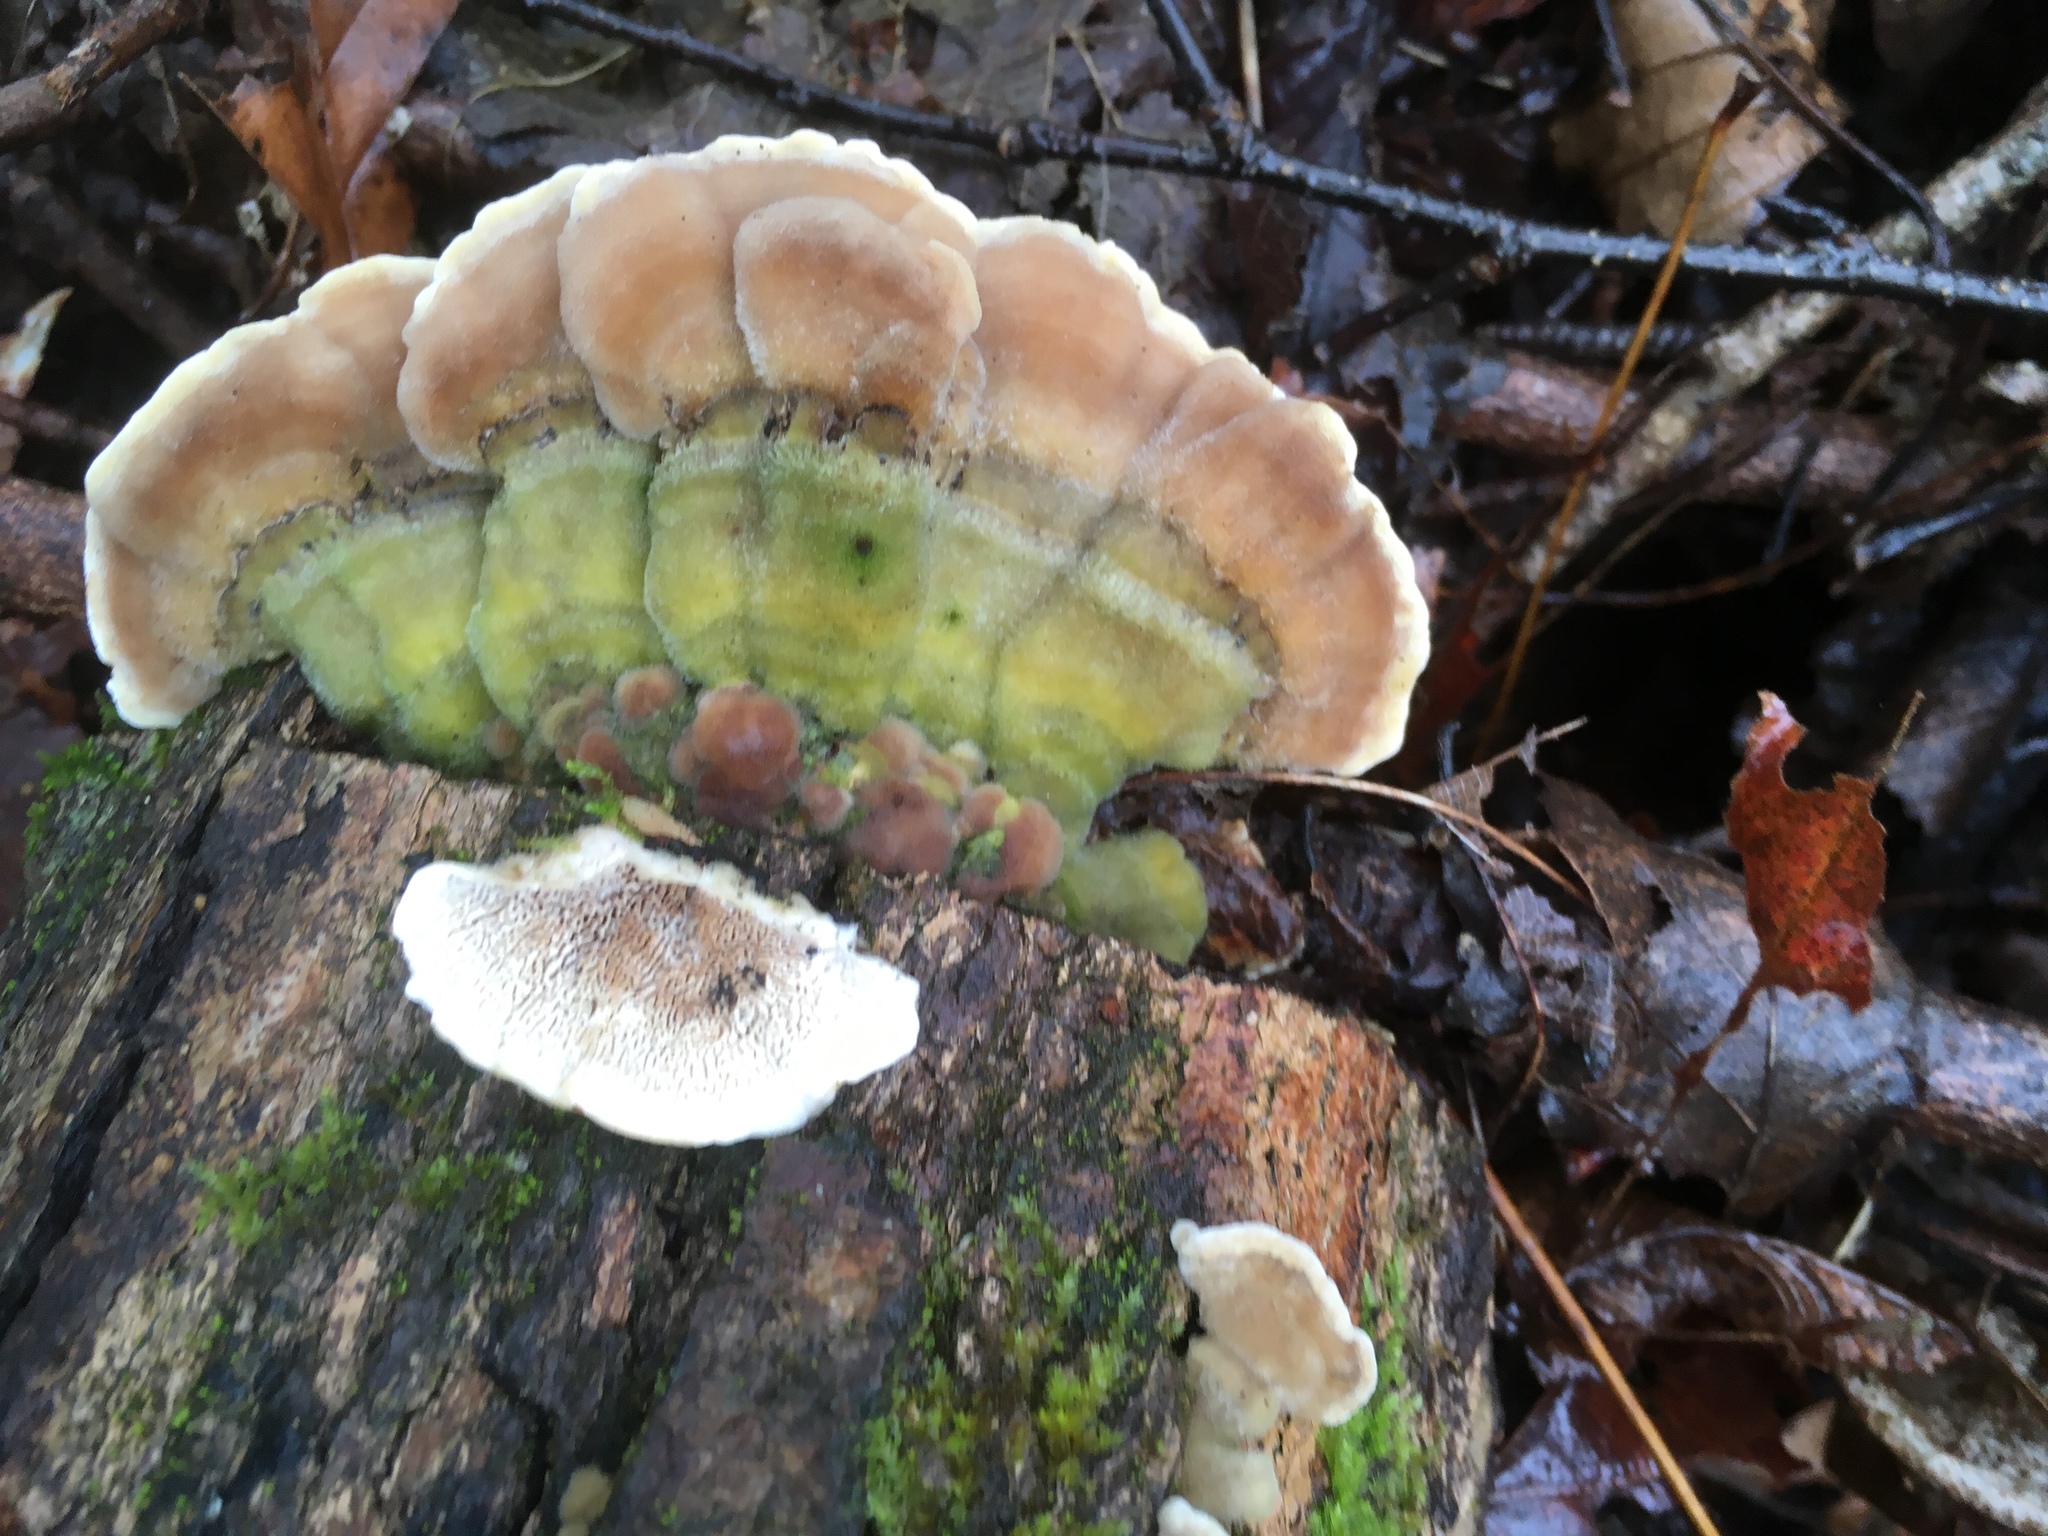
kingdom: Fungi
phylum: Basidiomycota
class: Agaricomycetes
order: Polyporales
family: Cerrenaceae
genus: Cerrena
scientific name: Cerrena unicolor
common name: Mossy maze polypore
